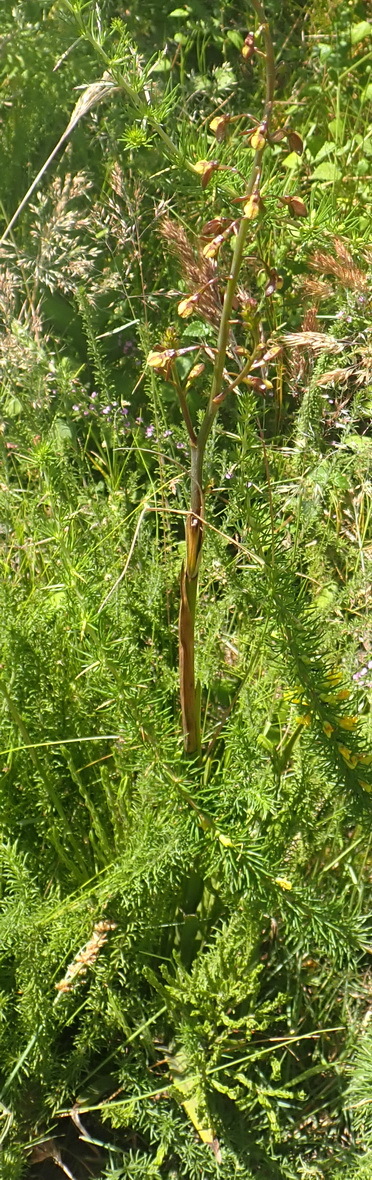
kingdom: Plantae
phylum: Tracheophyta
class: Liliopsida
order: Asparagales
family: Orchidaceae
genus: Eulophia
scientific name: Eulophia cochlearis
